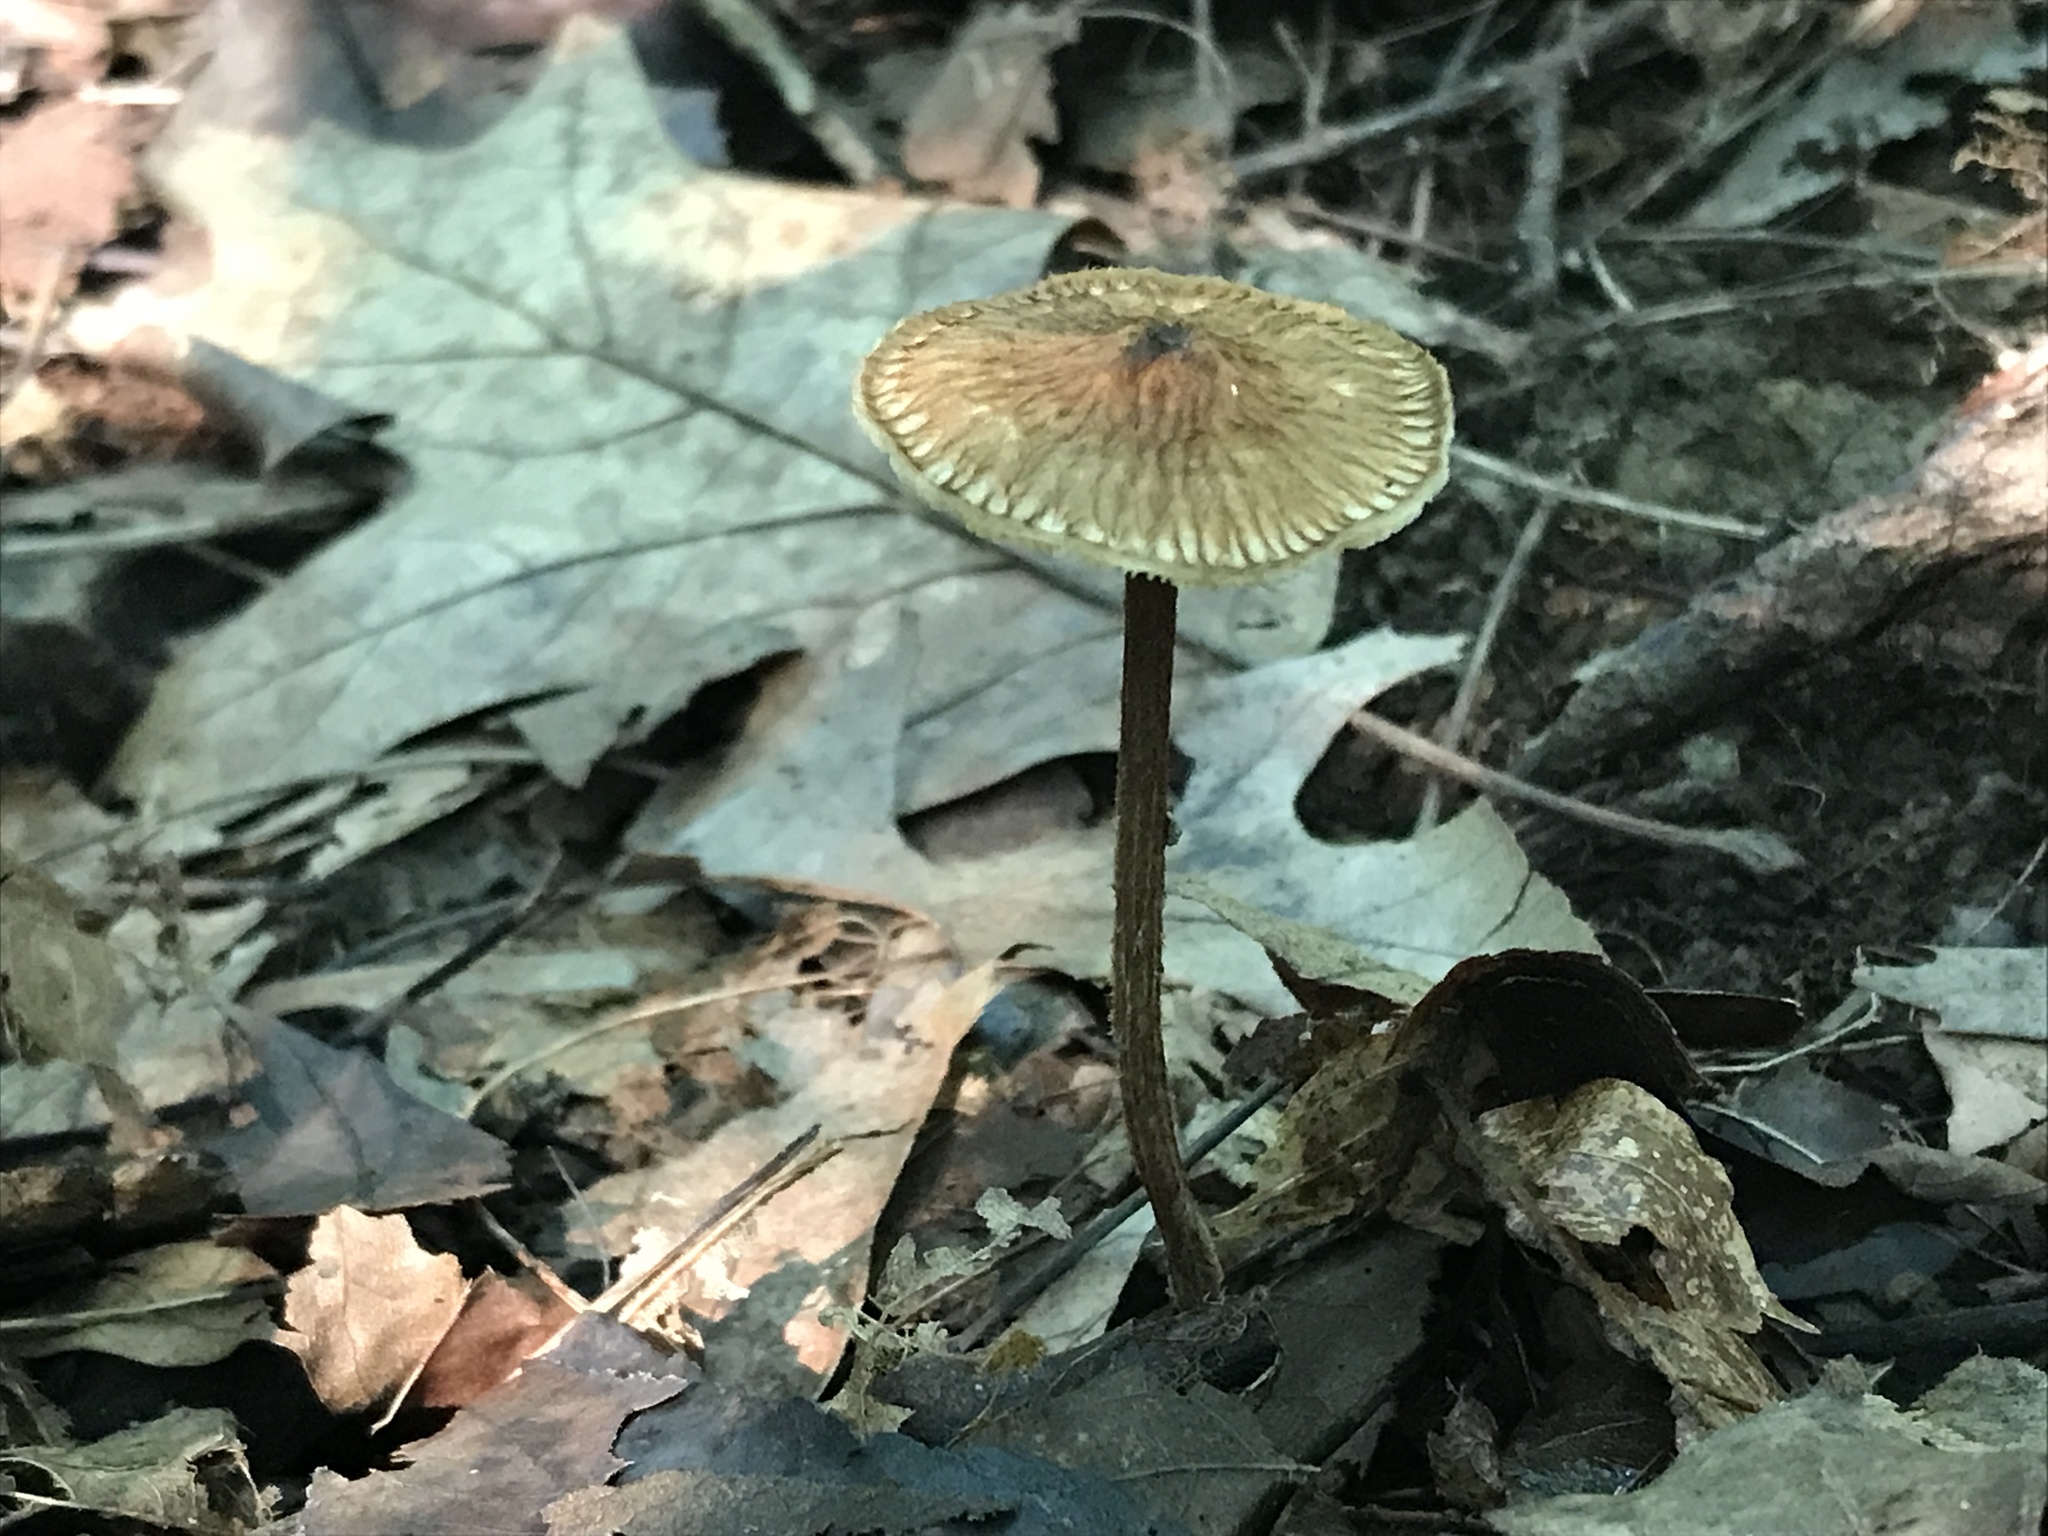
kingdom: Fungi
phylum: Basidiomycota
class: Agaricomycetes
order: Agaricales
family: Tricholomataceae
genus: Collybia
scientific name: Collybia zonata
